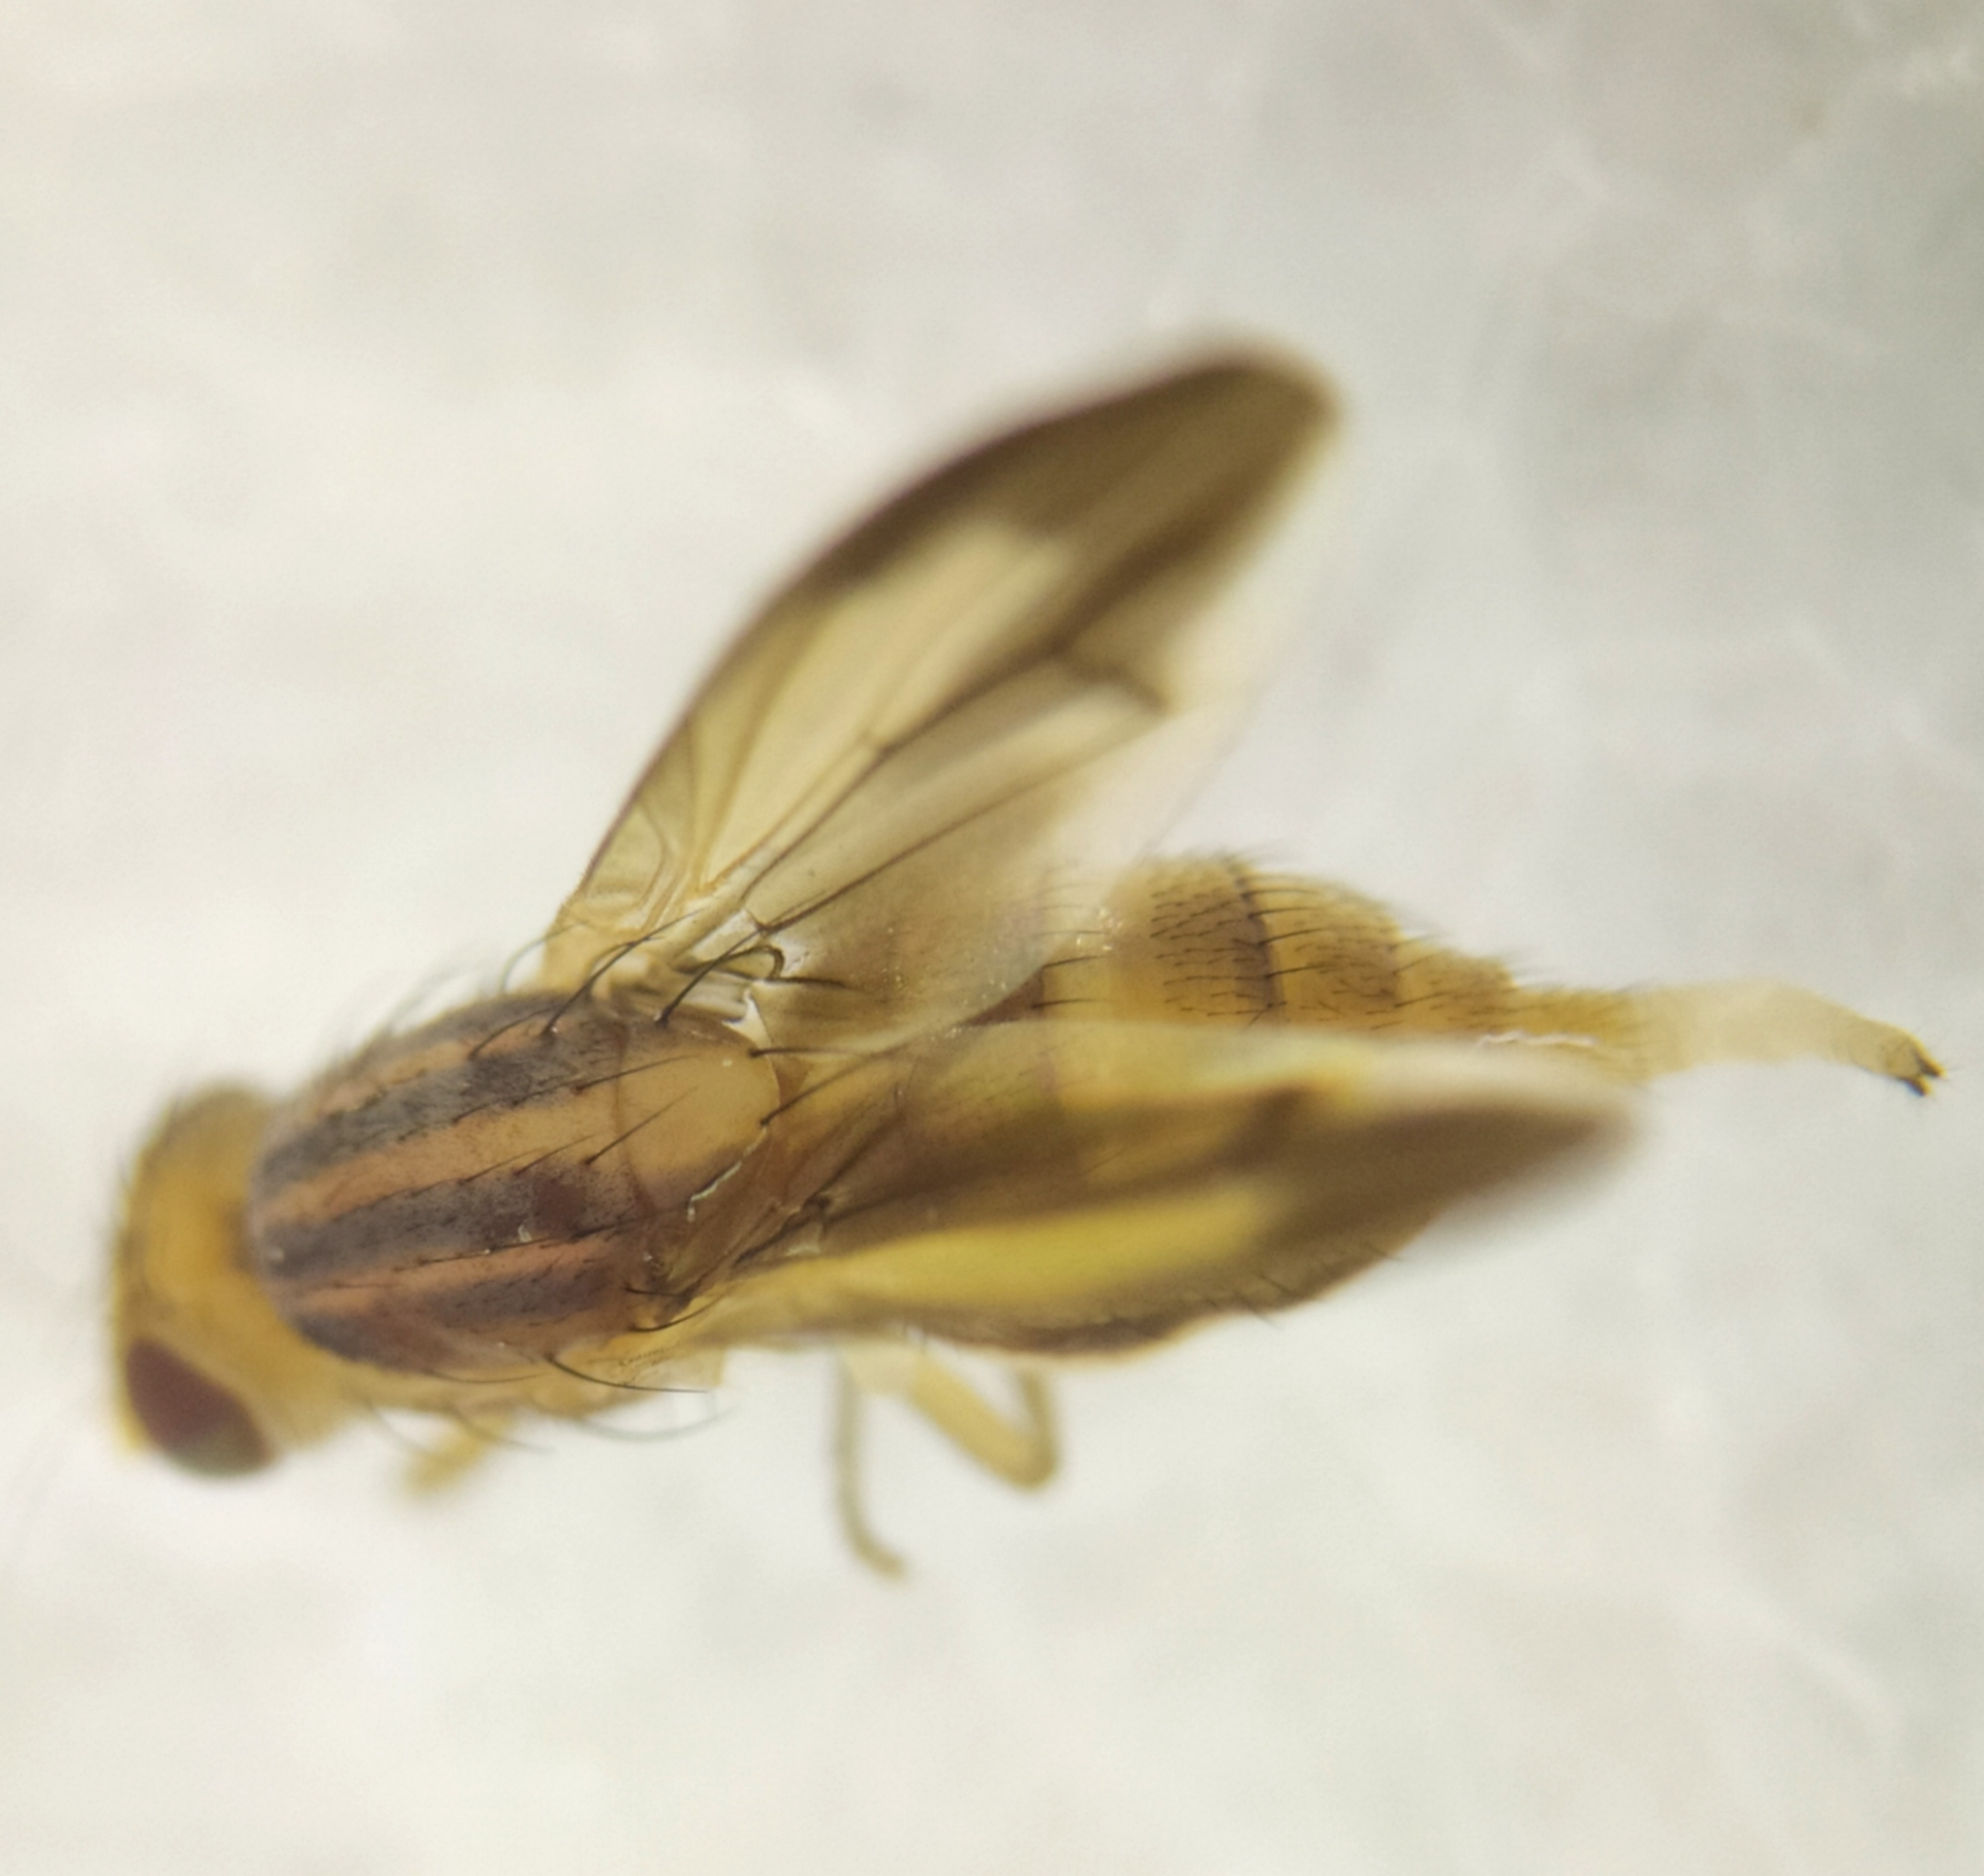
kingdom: Animalia
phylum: Arthropoda
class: Insecta
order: Diptera
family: Lauxaniidae
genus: Peplomyza
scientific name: Peplomyza litura
